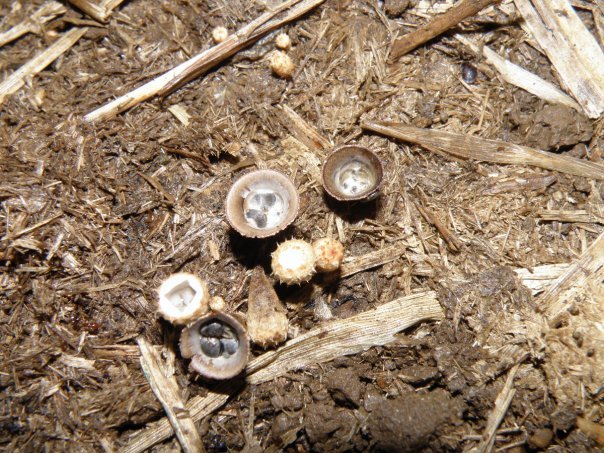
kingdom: Fungi
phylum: Basidiomycota
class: Agaricomycetes
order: Agaricales
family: Agaricaceae
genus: Cyathus
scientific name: Cyathus stercoreus
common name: Dung bird's nest
